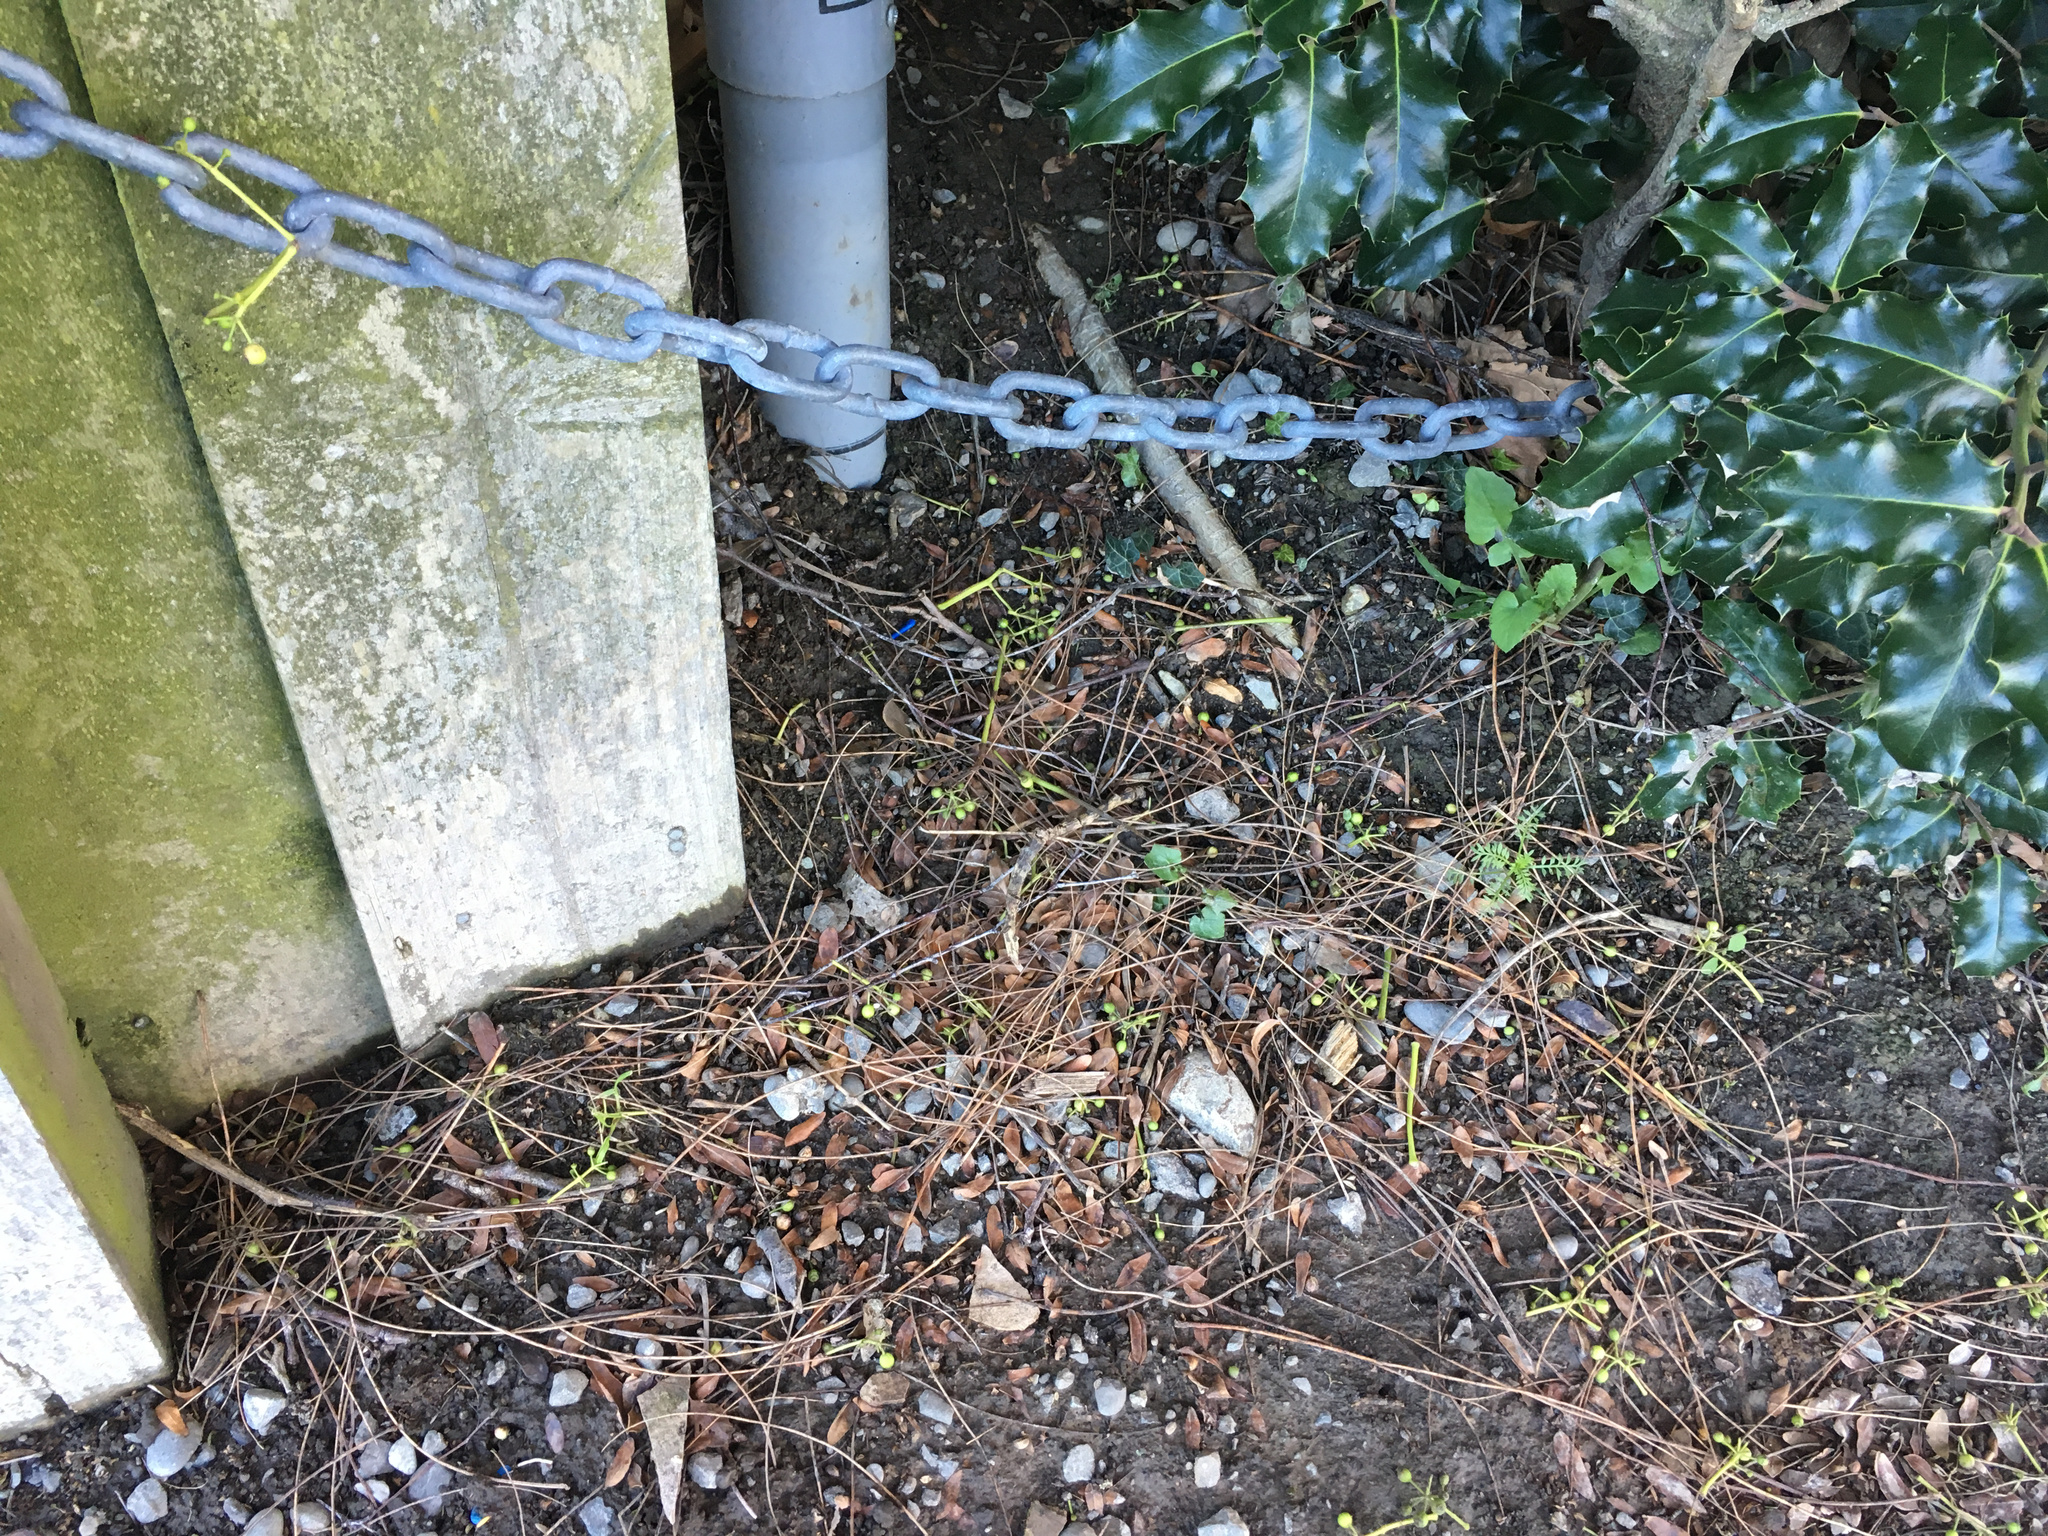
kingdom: Plantae
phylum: Tracheophyta
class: Magnoliopsida
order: Asterales
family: Asteraceae
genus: Mycelis
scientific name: Mycelis muralis
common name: Wall lettuce
